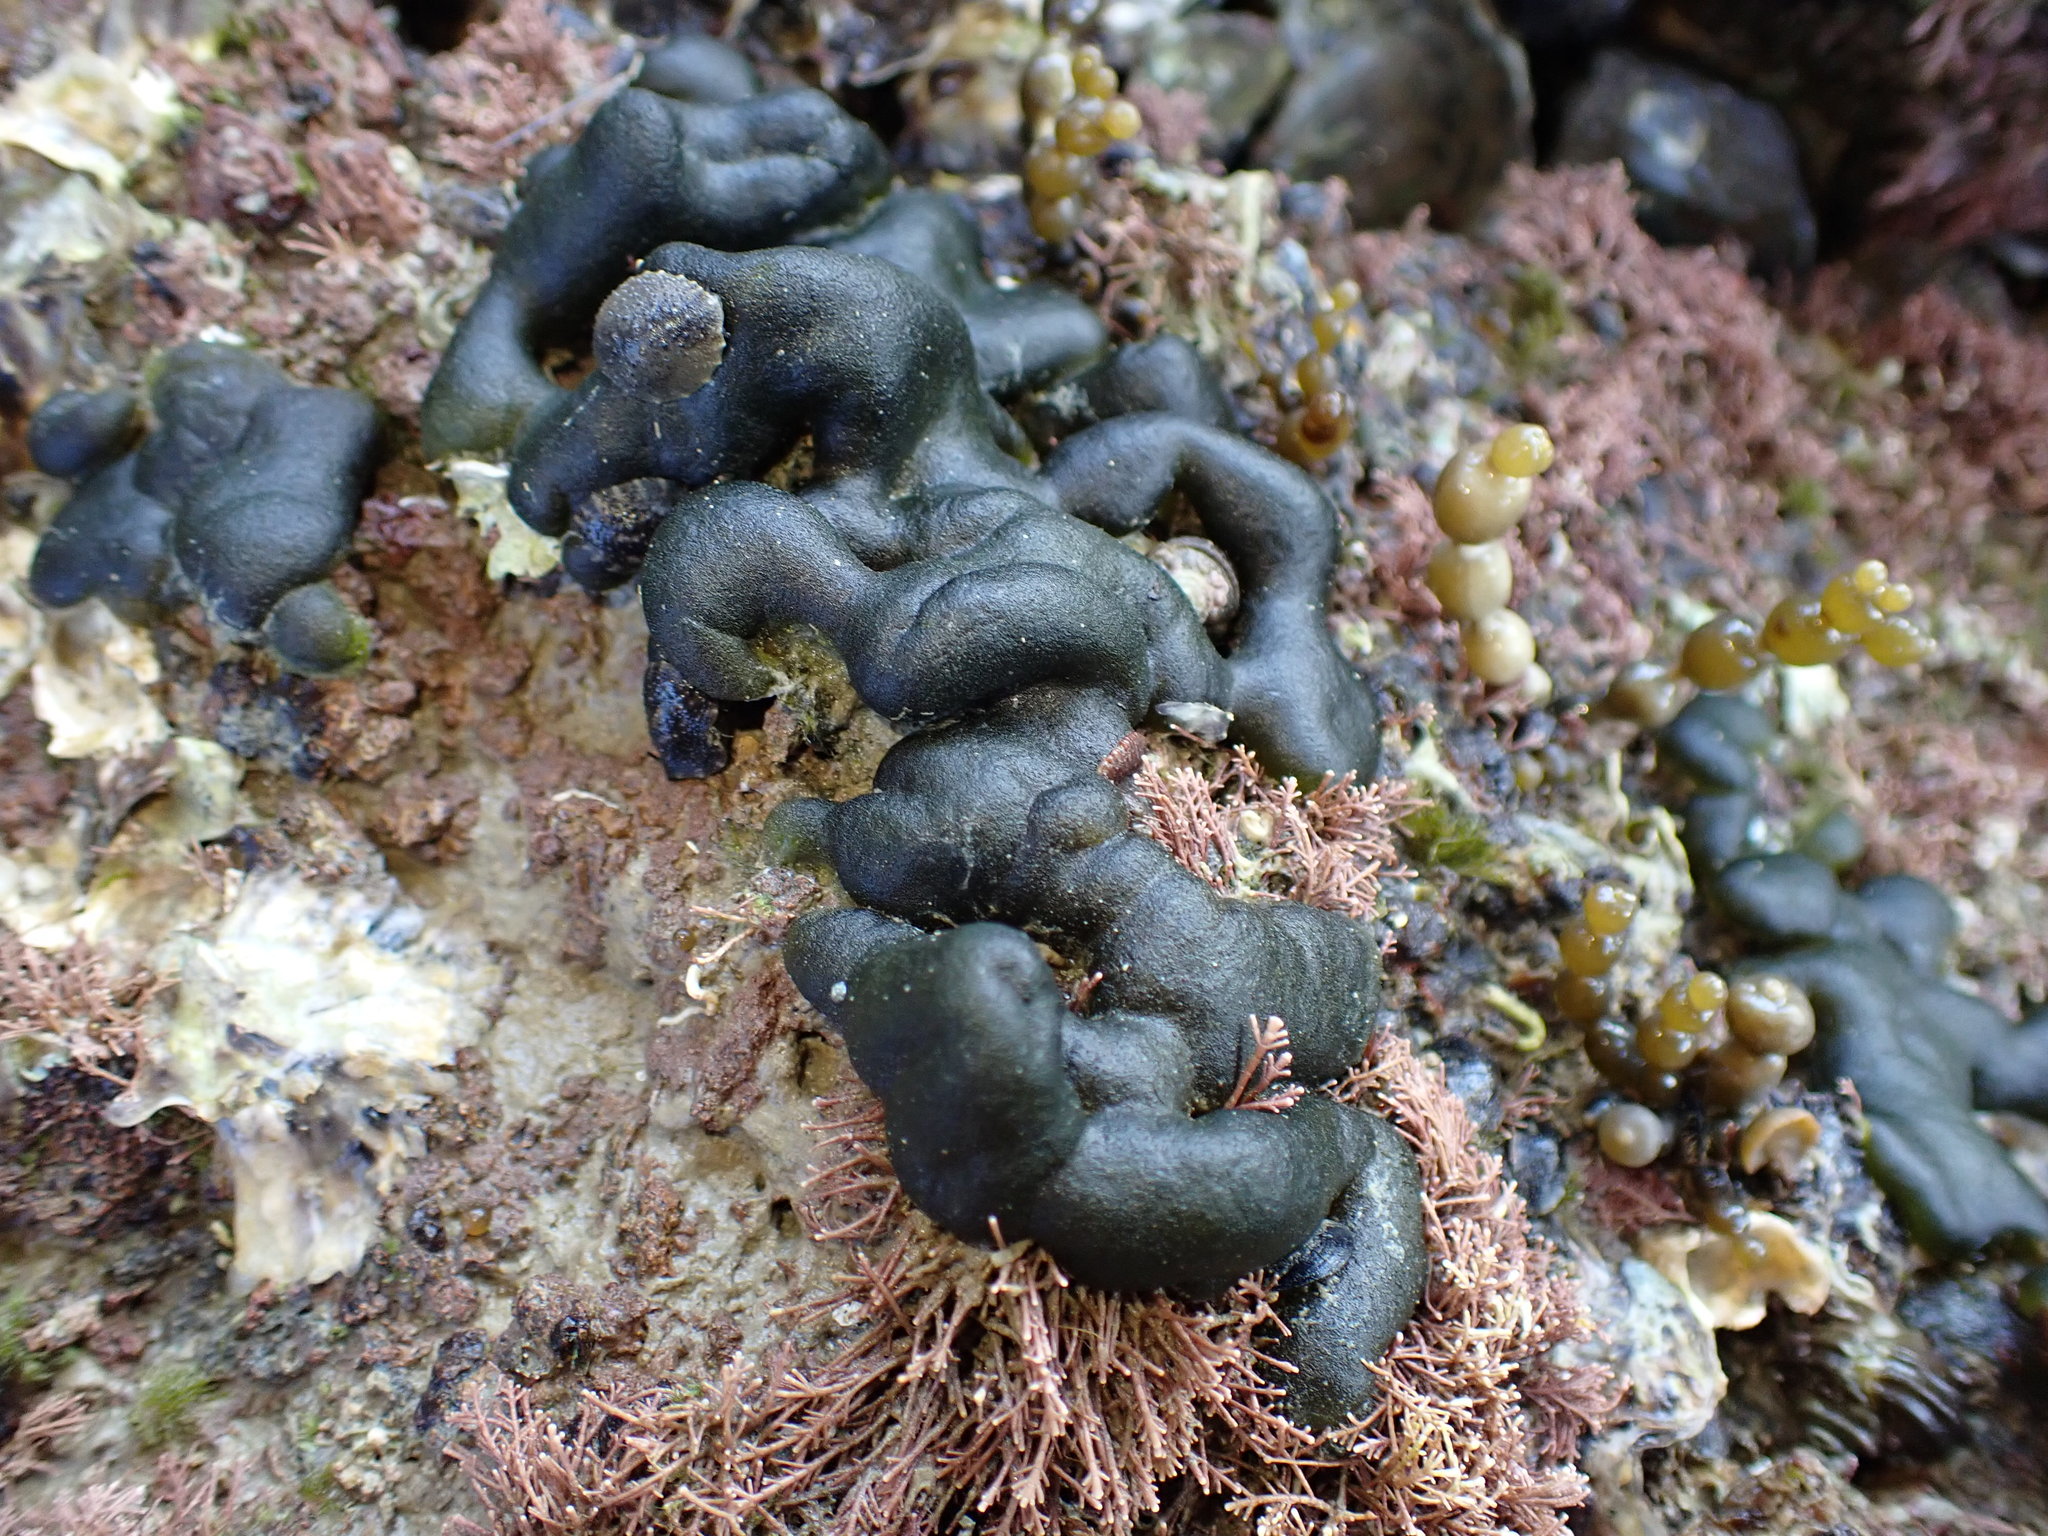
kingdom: Plantae
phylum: Chlorophyta
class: Ulvophyceae
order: Bryopsidales
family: Codiaceae
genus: Codium
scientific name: Codium convolutum
